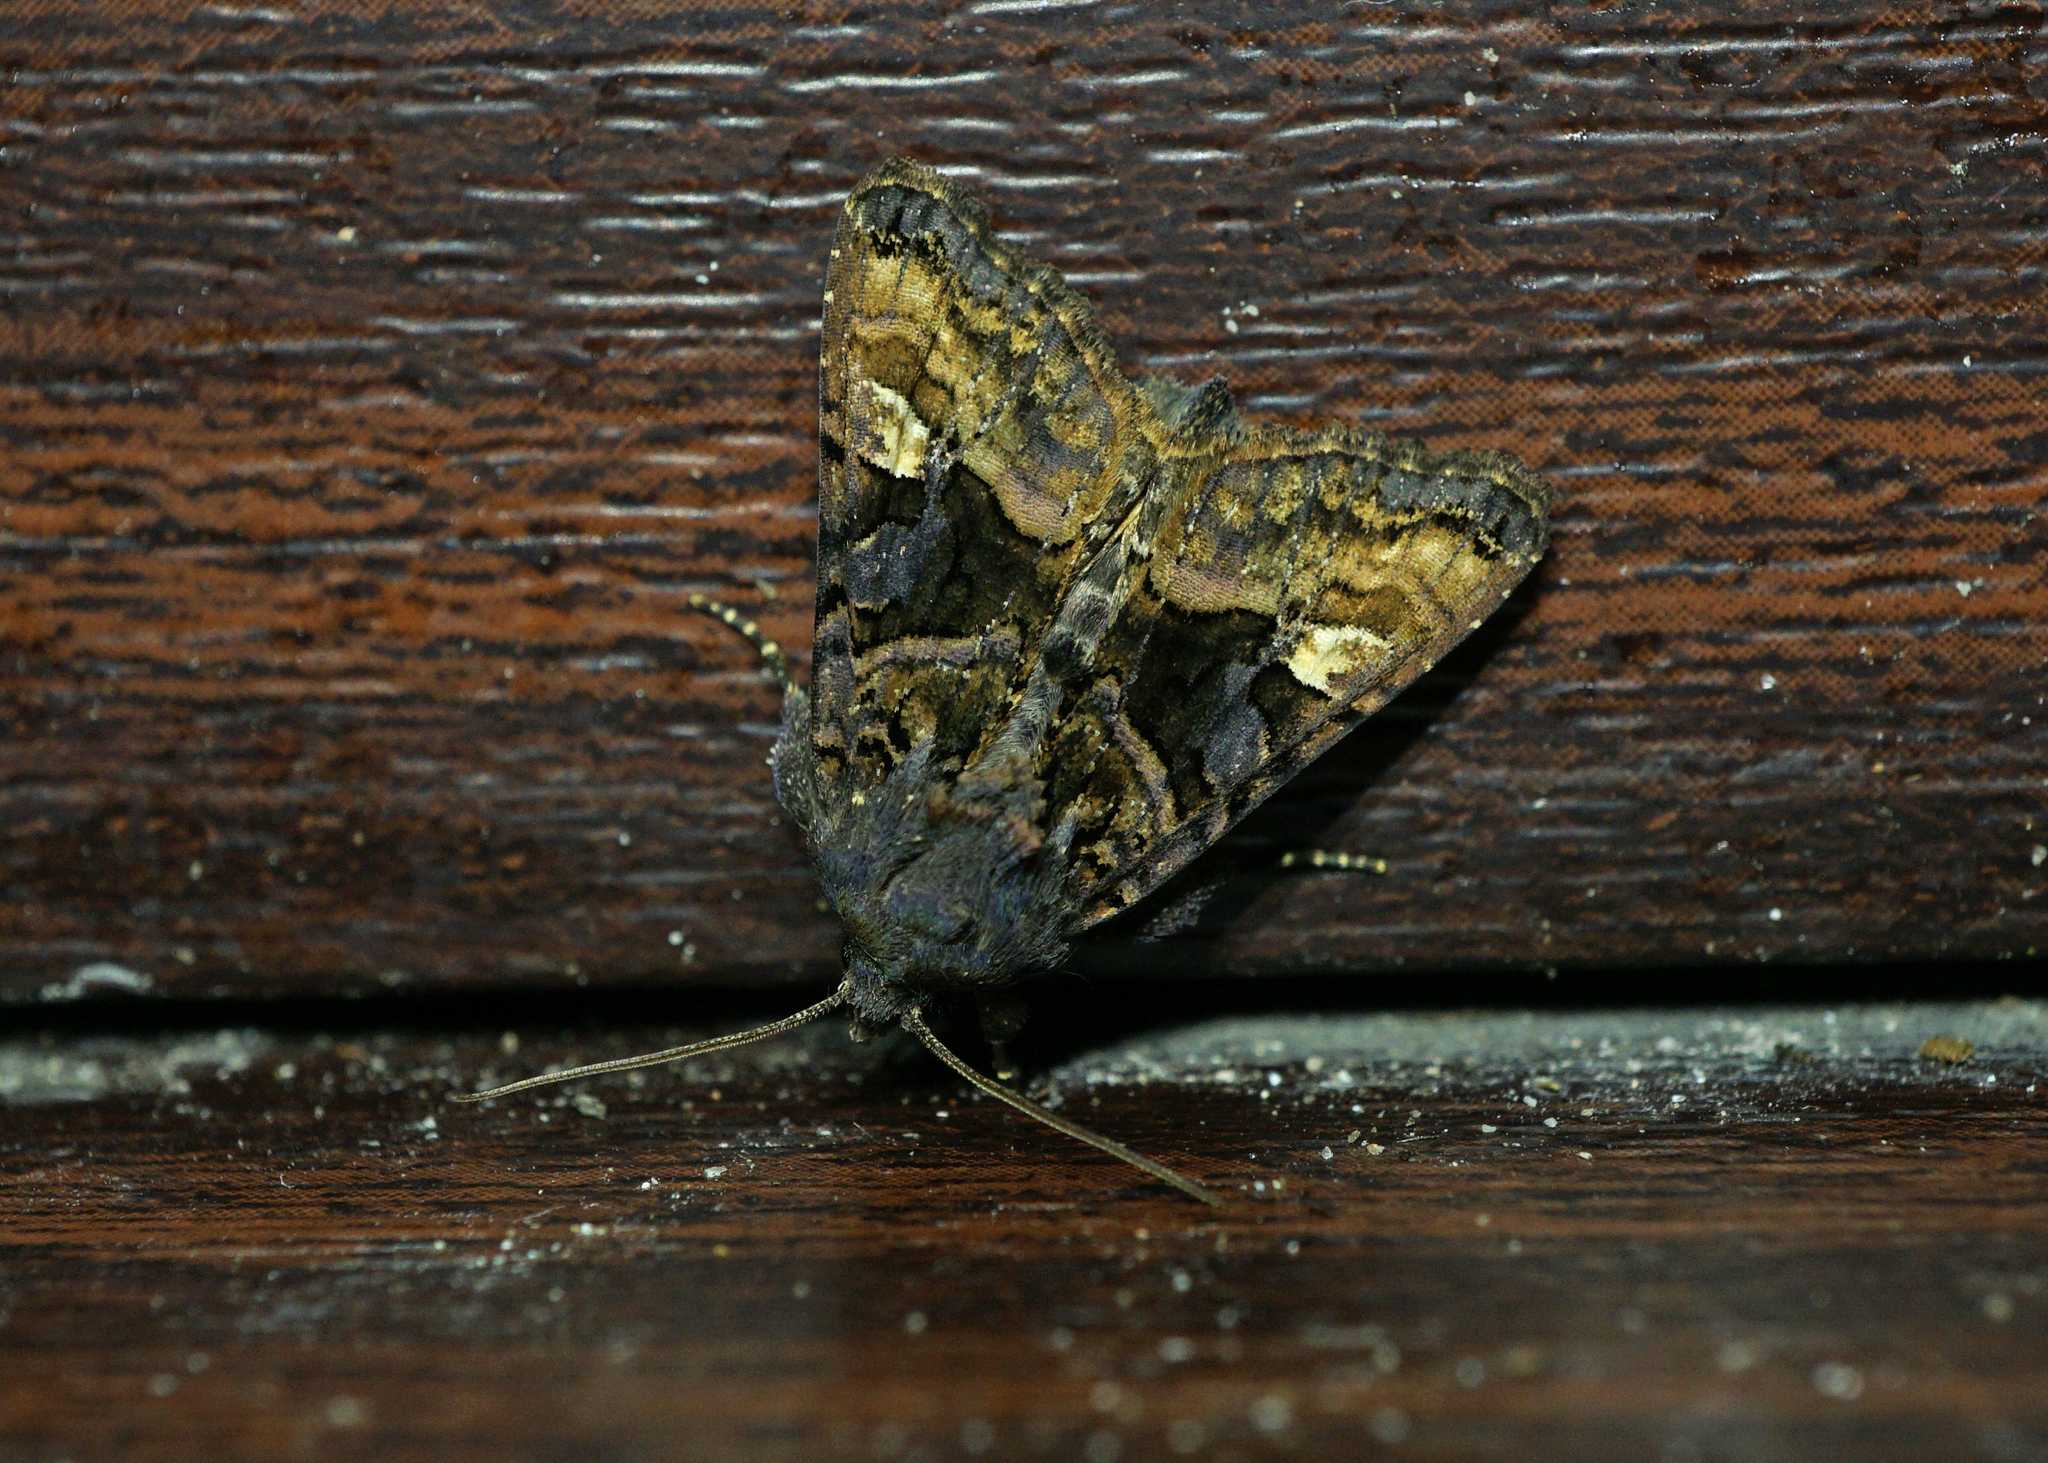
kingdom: Animalia
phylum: Arthropoda
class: Insecta
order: Lepidoptera
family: Noctuidae
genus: Euplexia
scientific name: Euplexia lucipara
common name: Small angle shades
